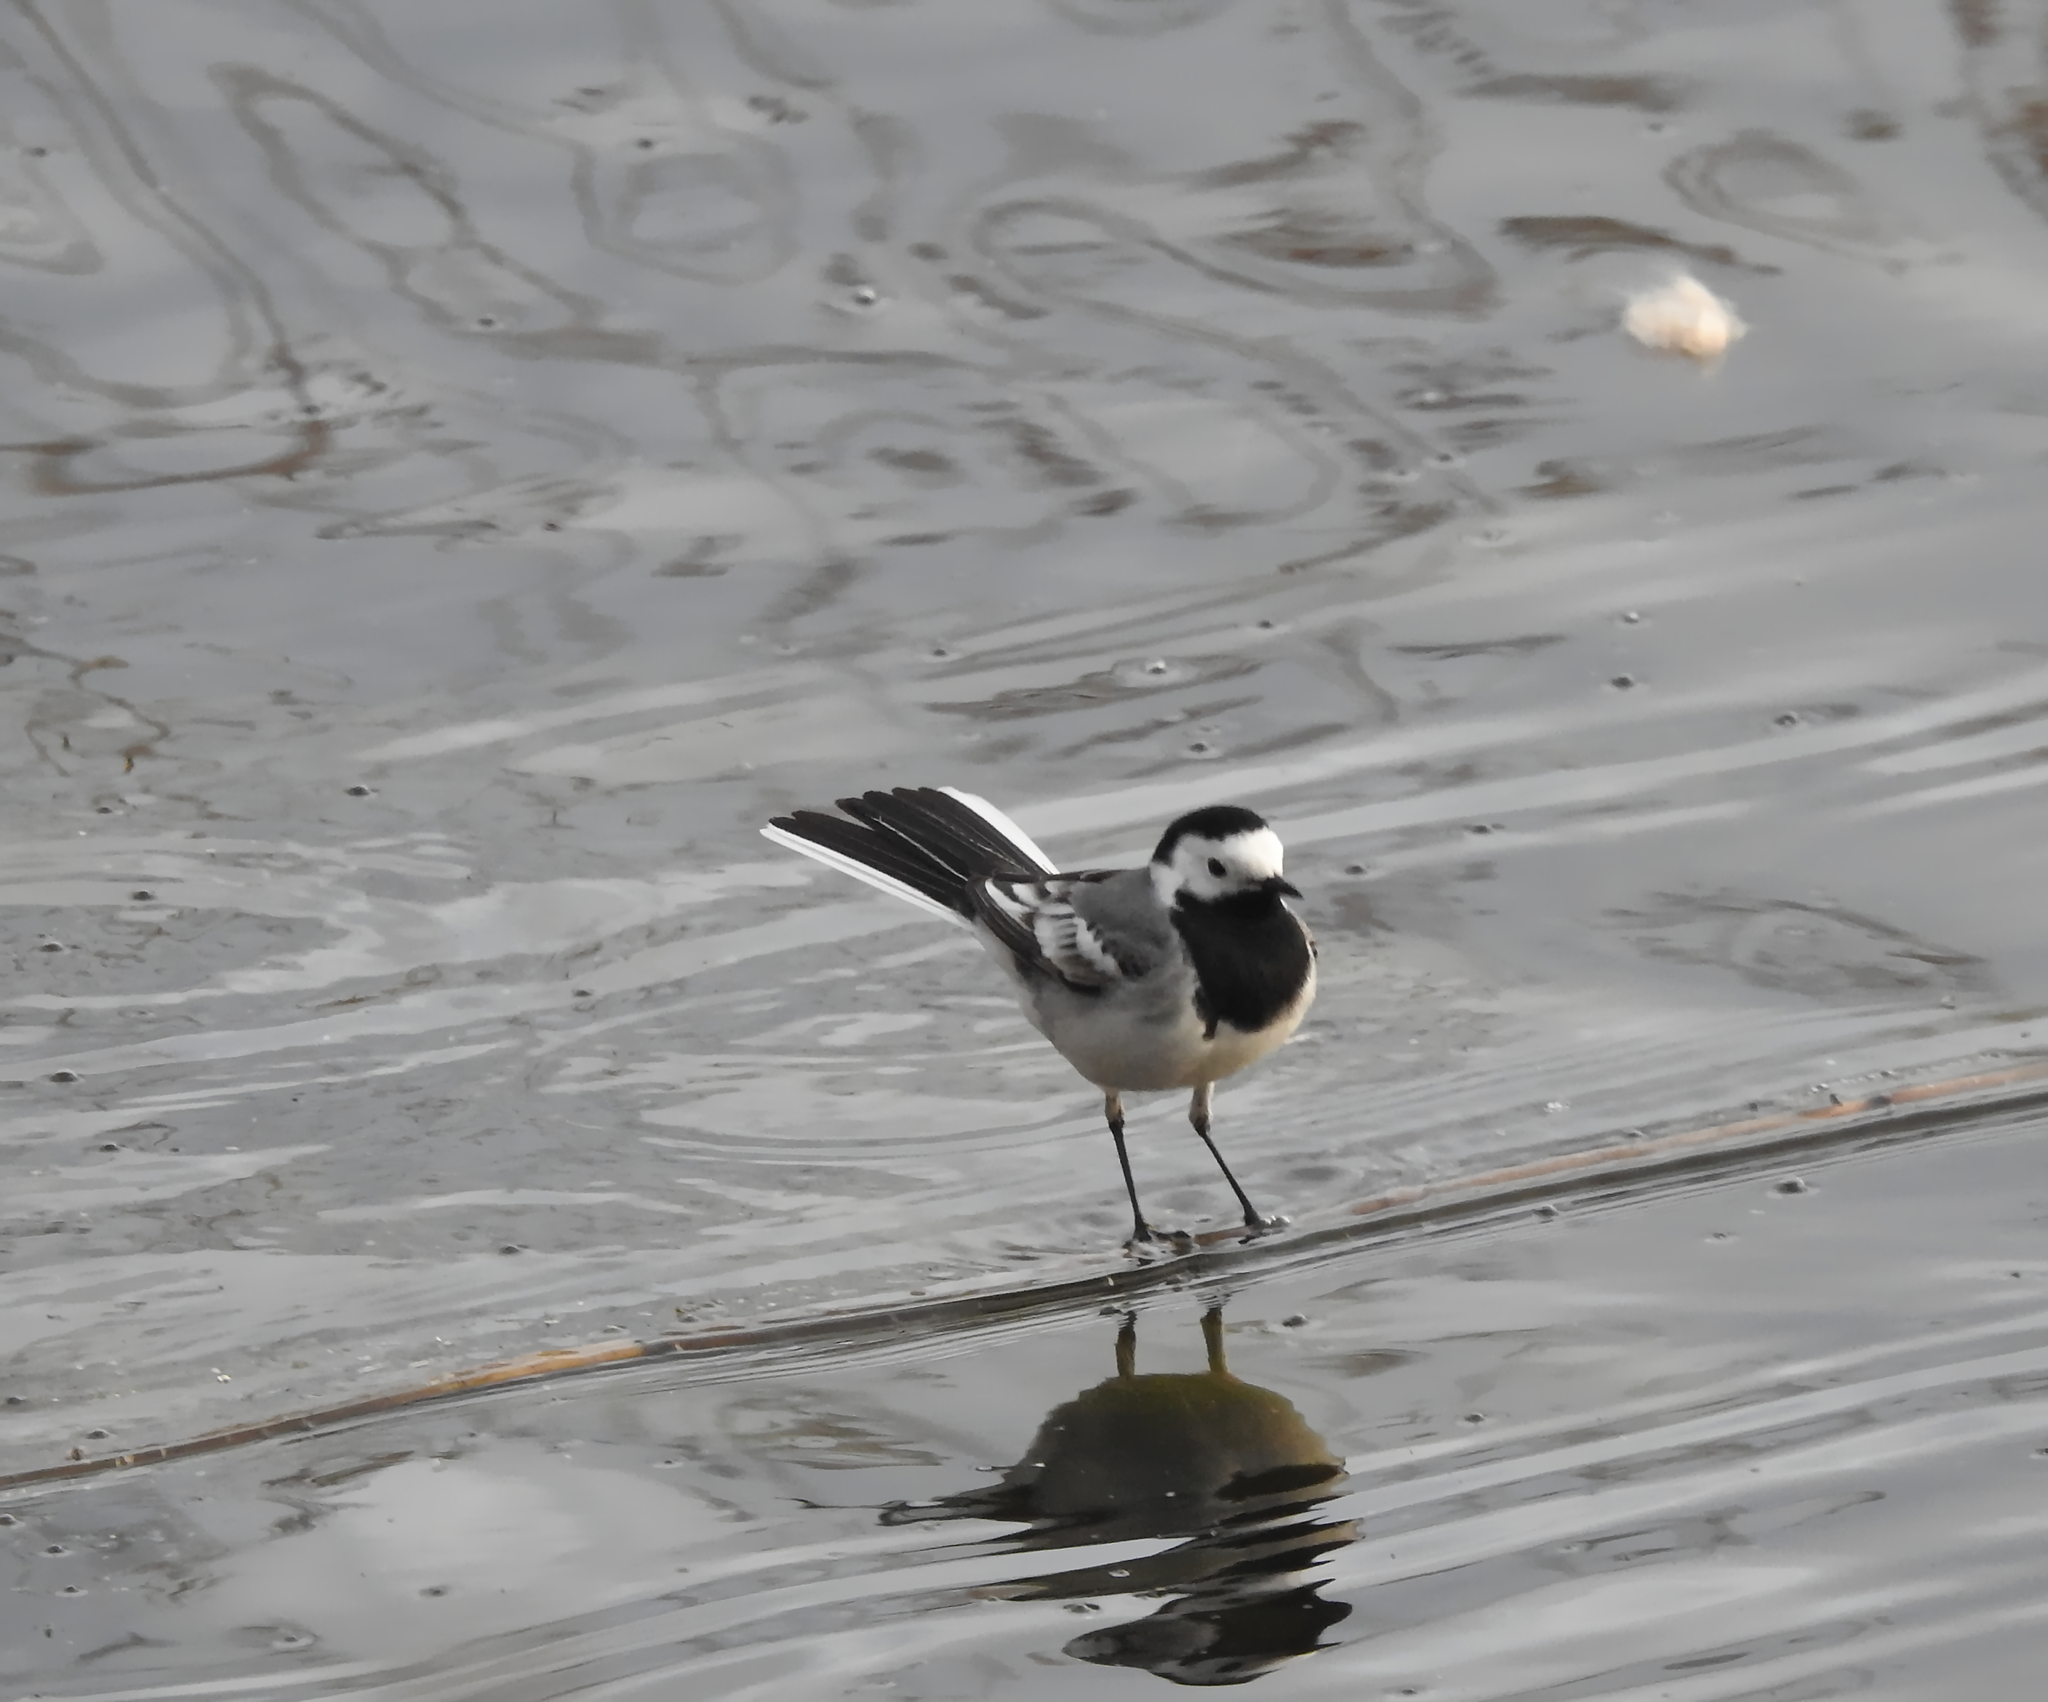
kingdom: Animalia
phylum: Chordata
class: Aves
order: Passeriformes
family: Motacillidae
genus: Motacilla
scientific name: Motacilla alba
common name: White wagtail
